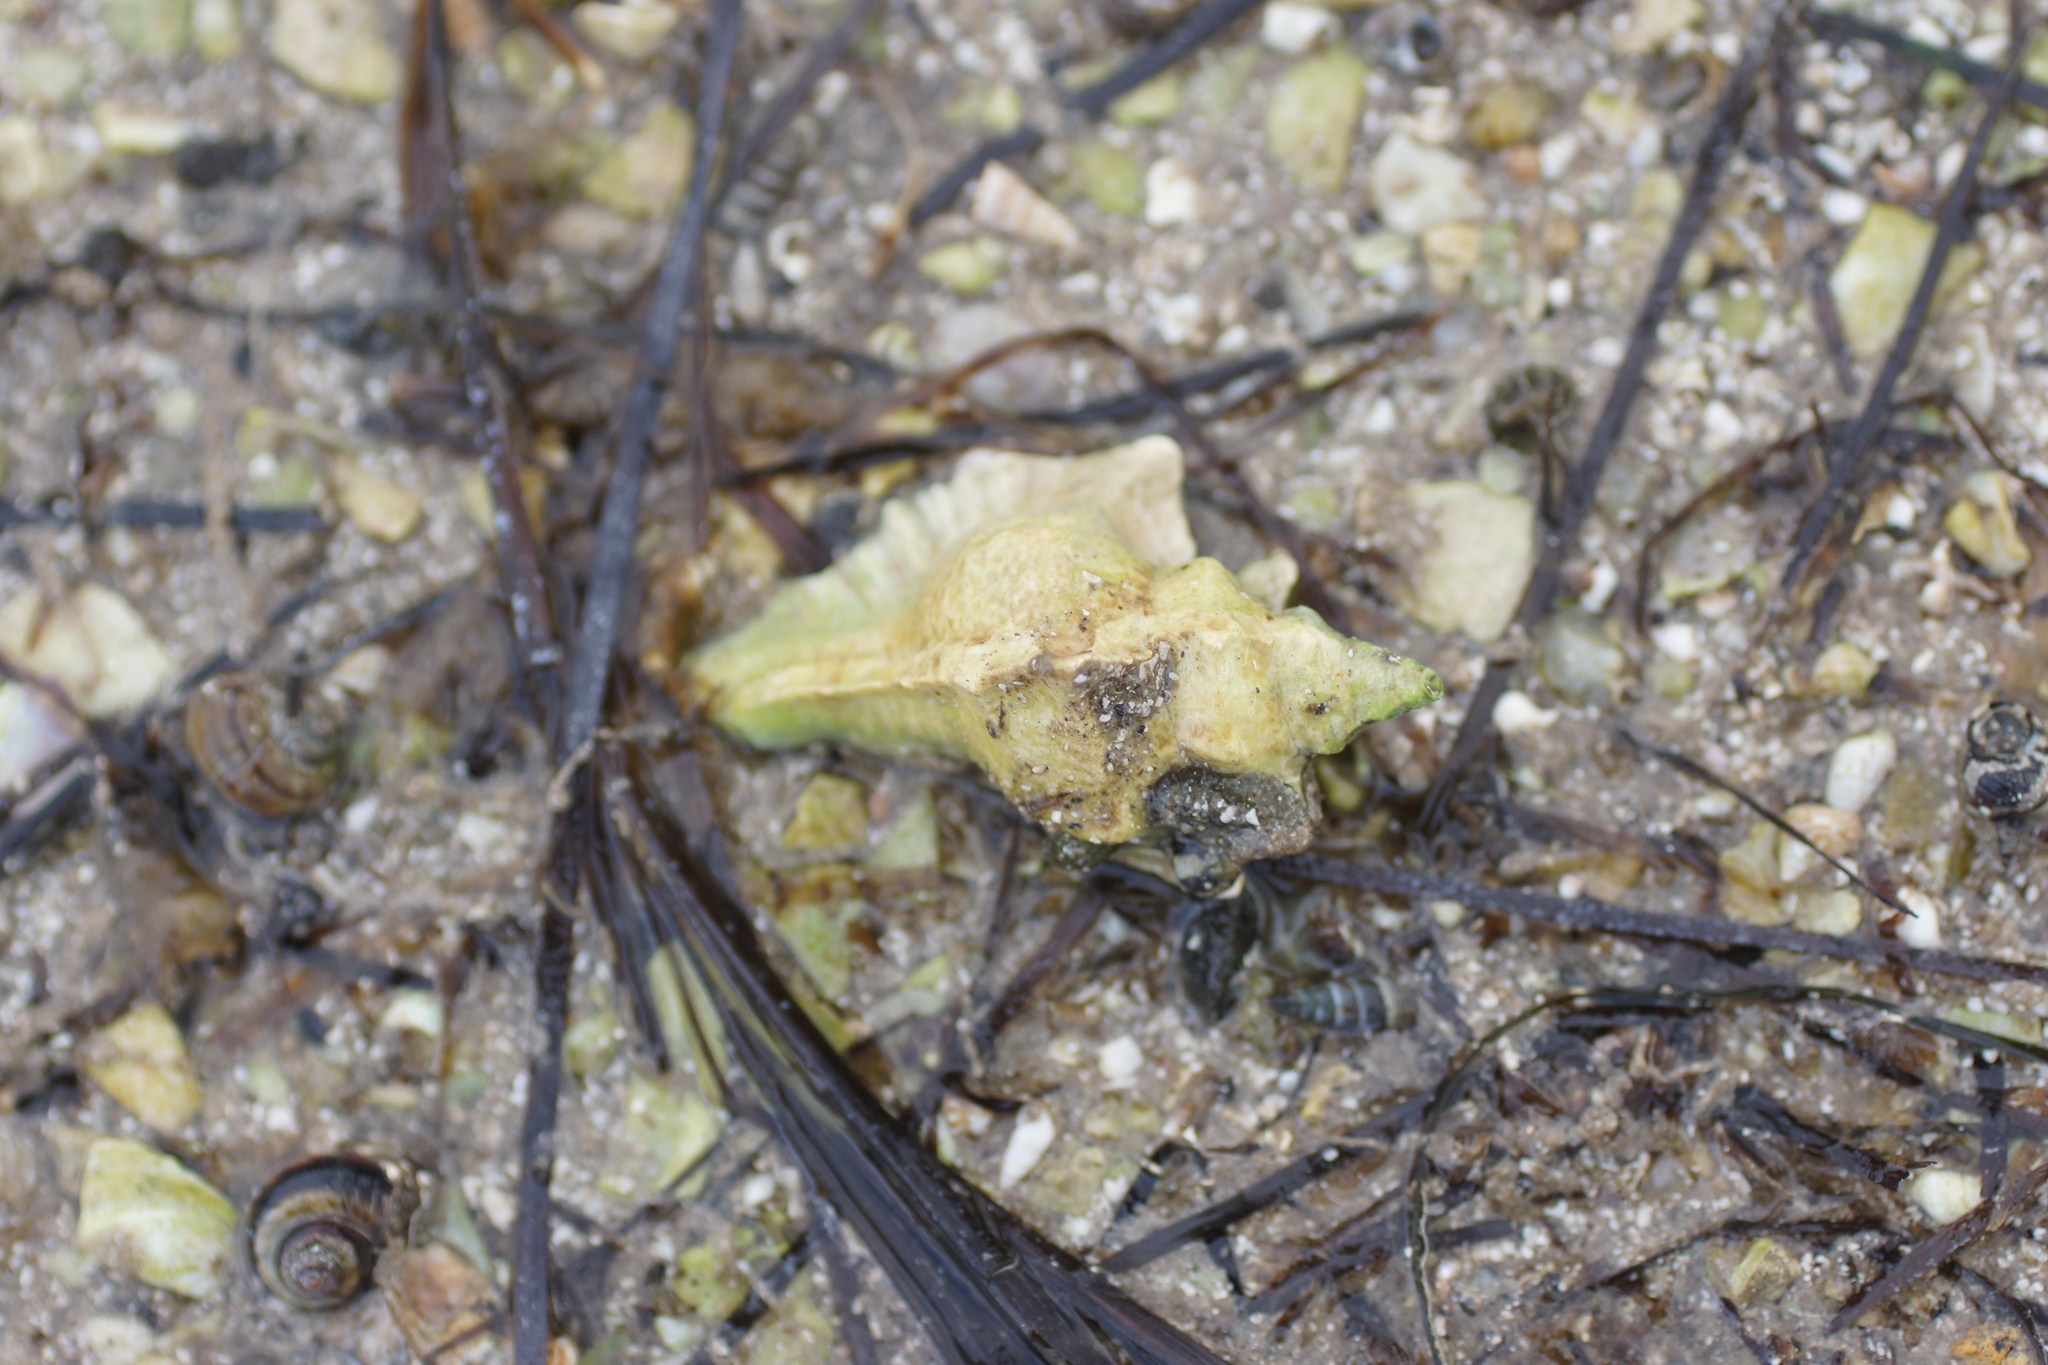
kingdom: Animalia
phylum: Mollusca
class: Gastropoda
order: Neogastropoda
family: Muricidae
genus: Pterochelus
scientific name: Pterochelus triformis
